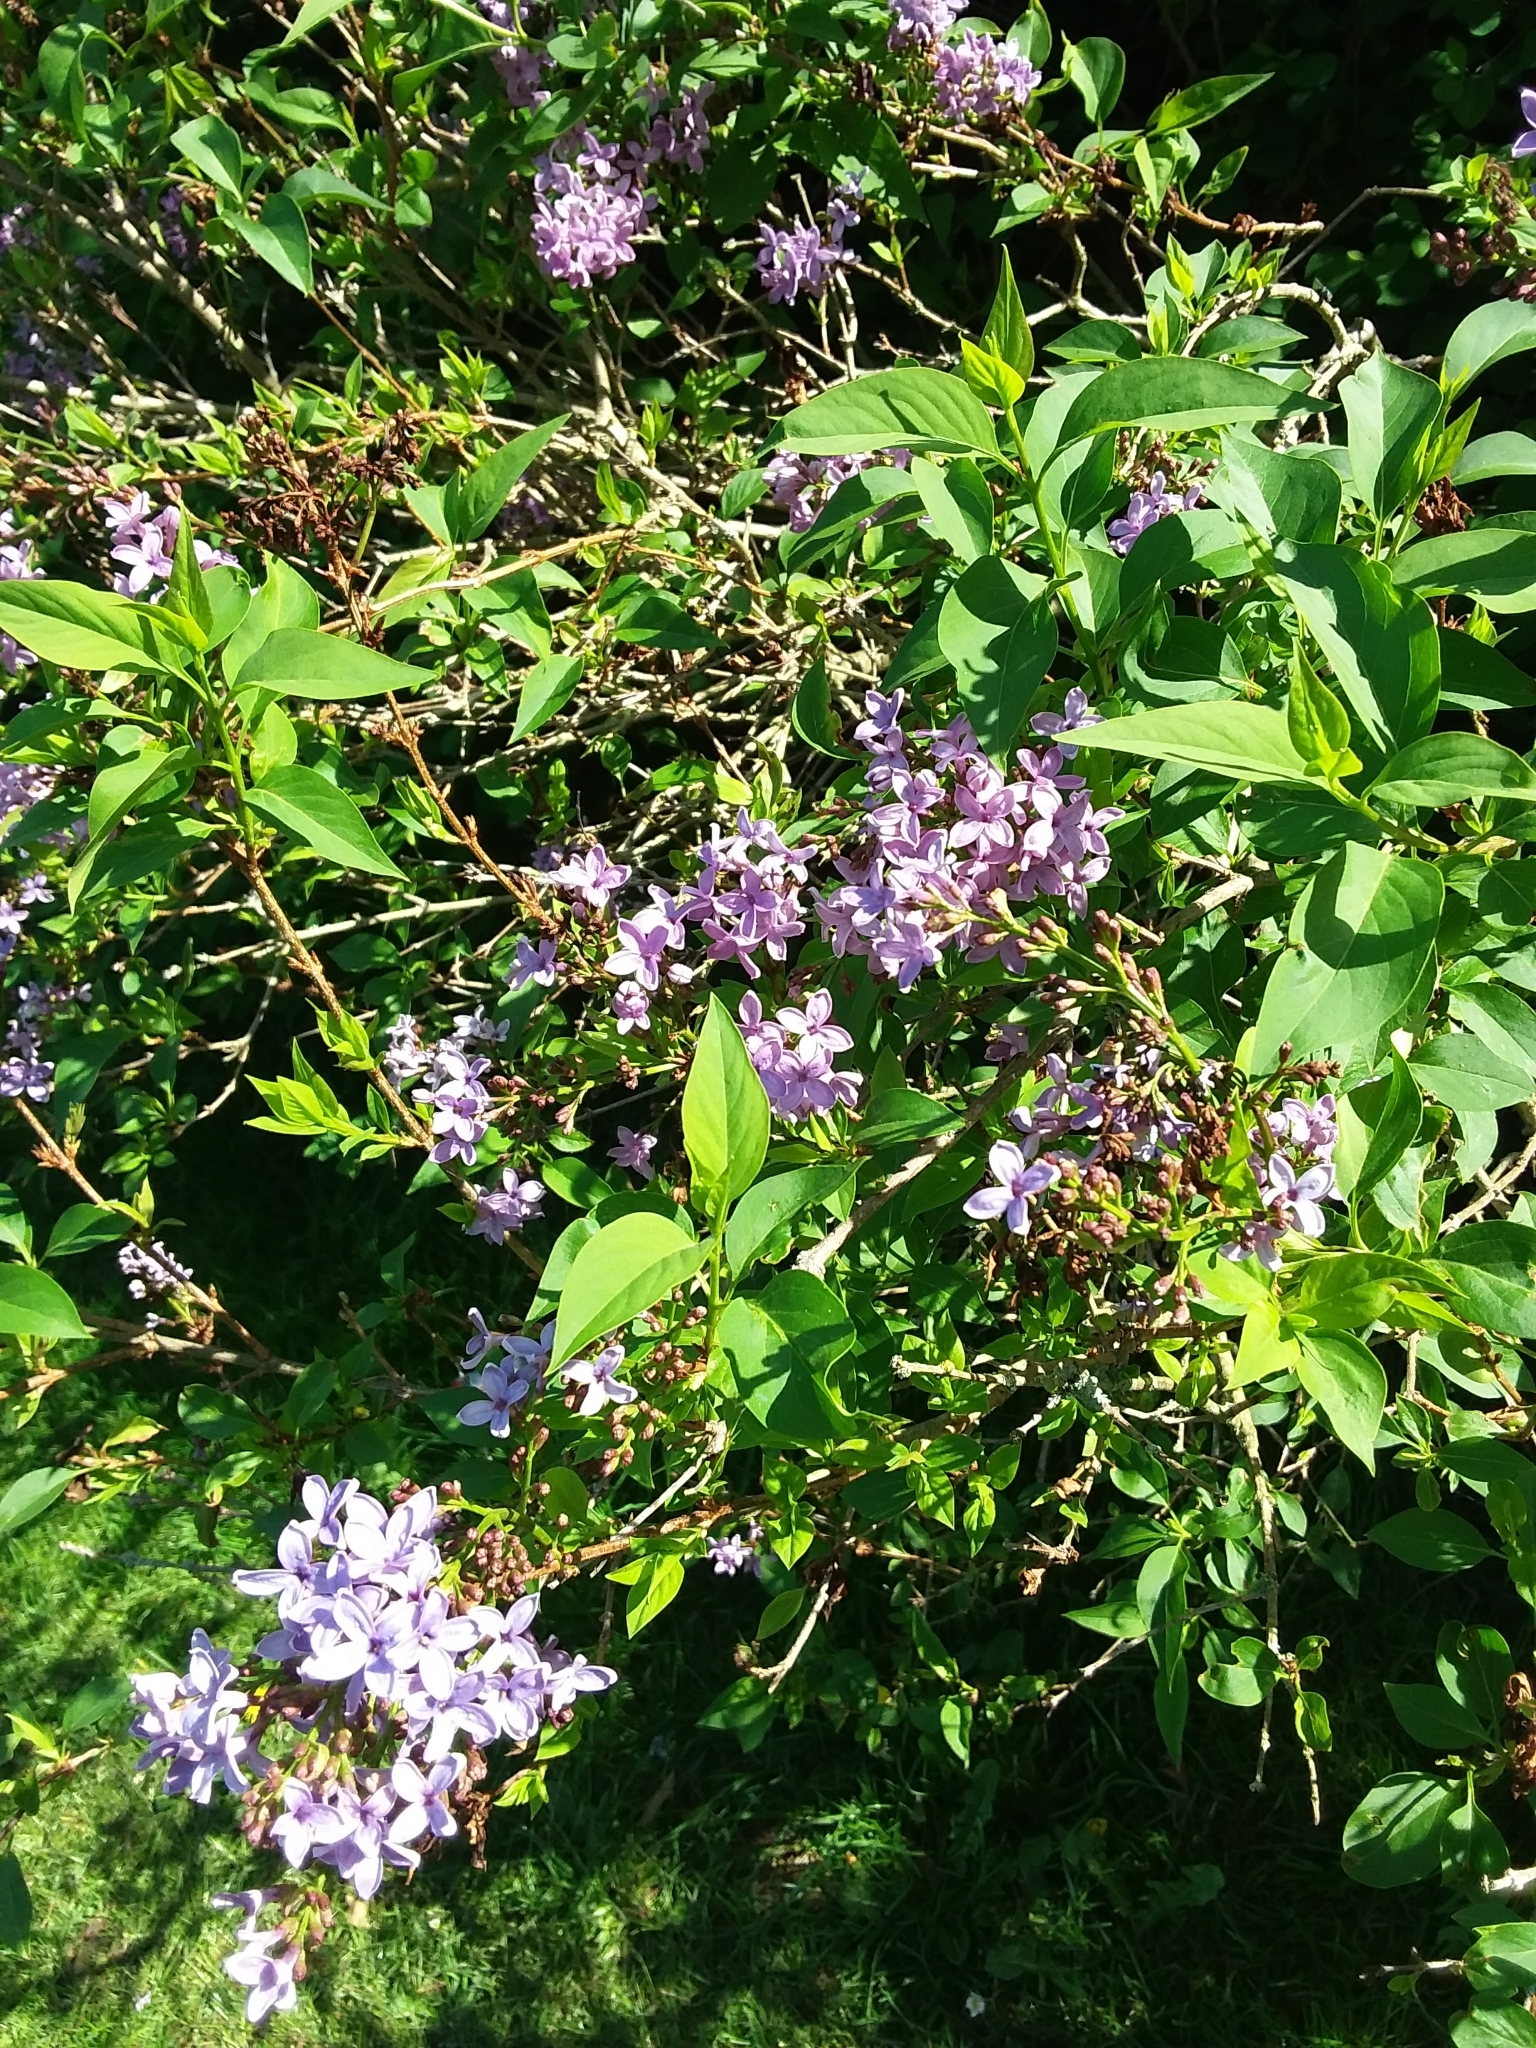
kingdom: Plantae
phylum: Tracheophyta
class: Magnoliopsida
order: Lamiales
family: Oleaceae
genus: Syringa
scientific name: Syringa vulgaris
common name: Common lilac
